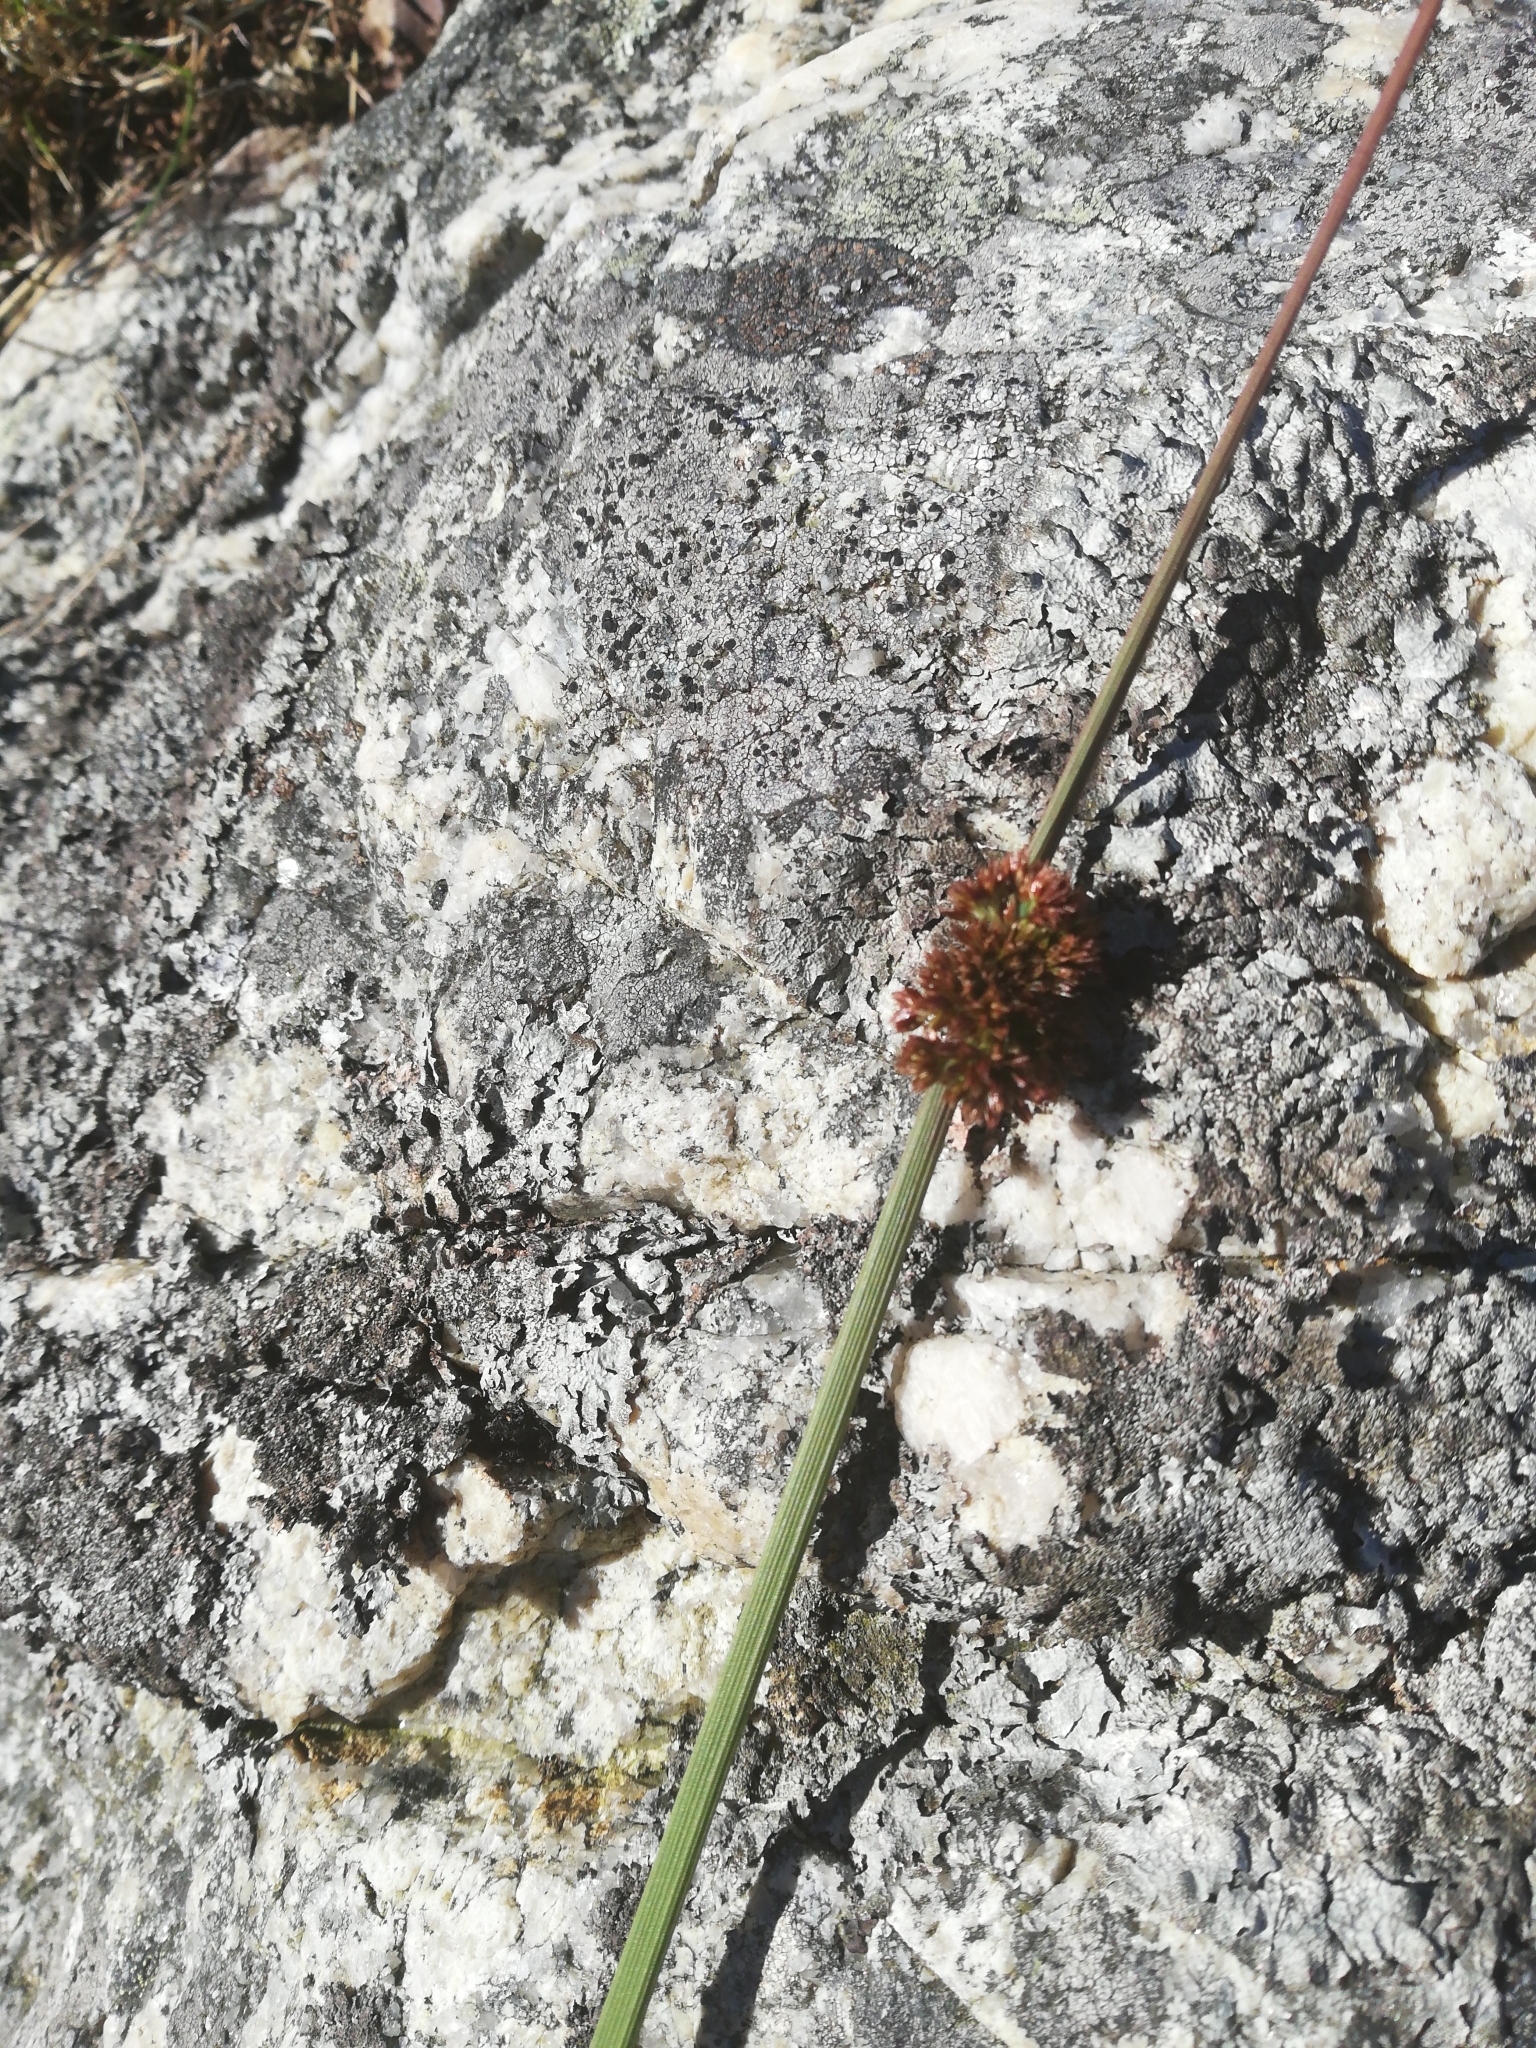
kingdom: Plantae
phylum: Tracheophyta
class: Liliopsida
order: Poales
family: Juncaceae
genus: Juncus
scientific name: Juncus conglomeratus
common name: Compact rush
